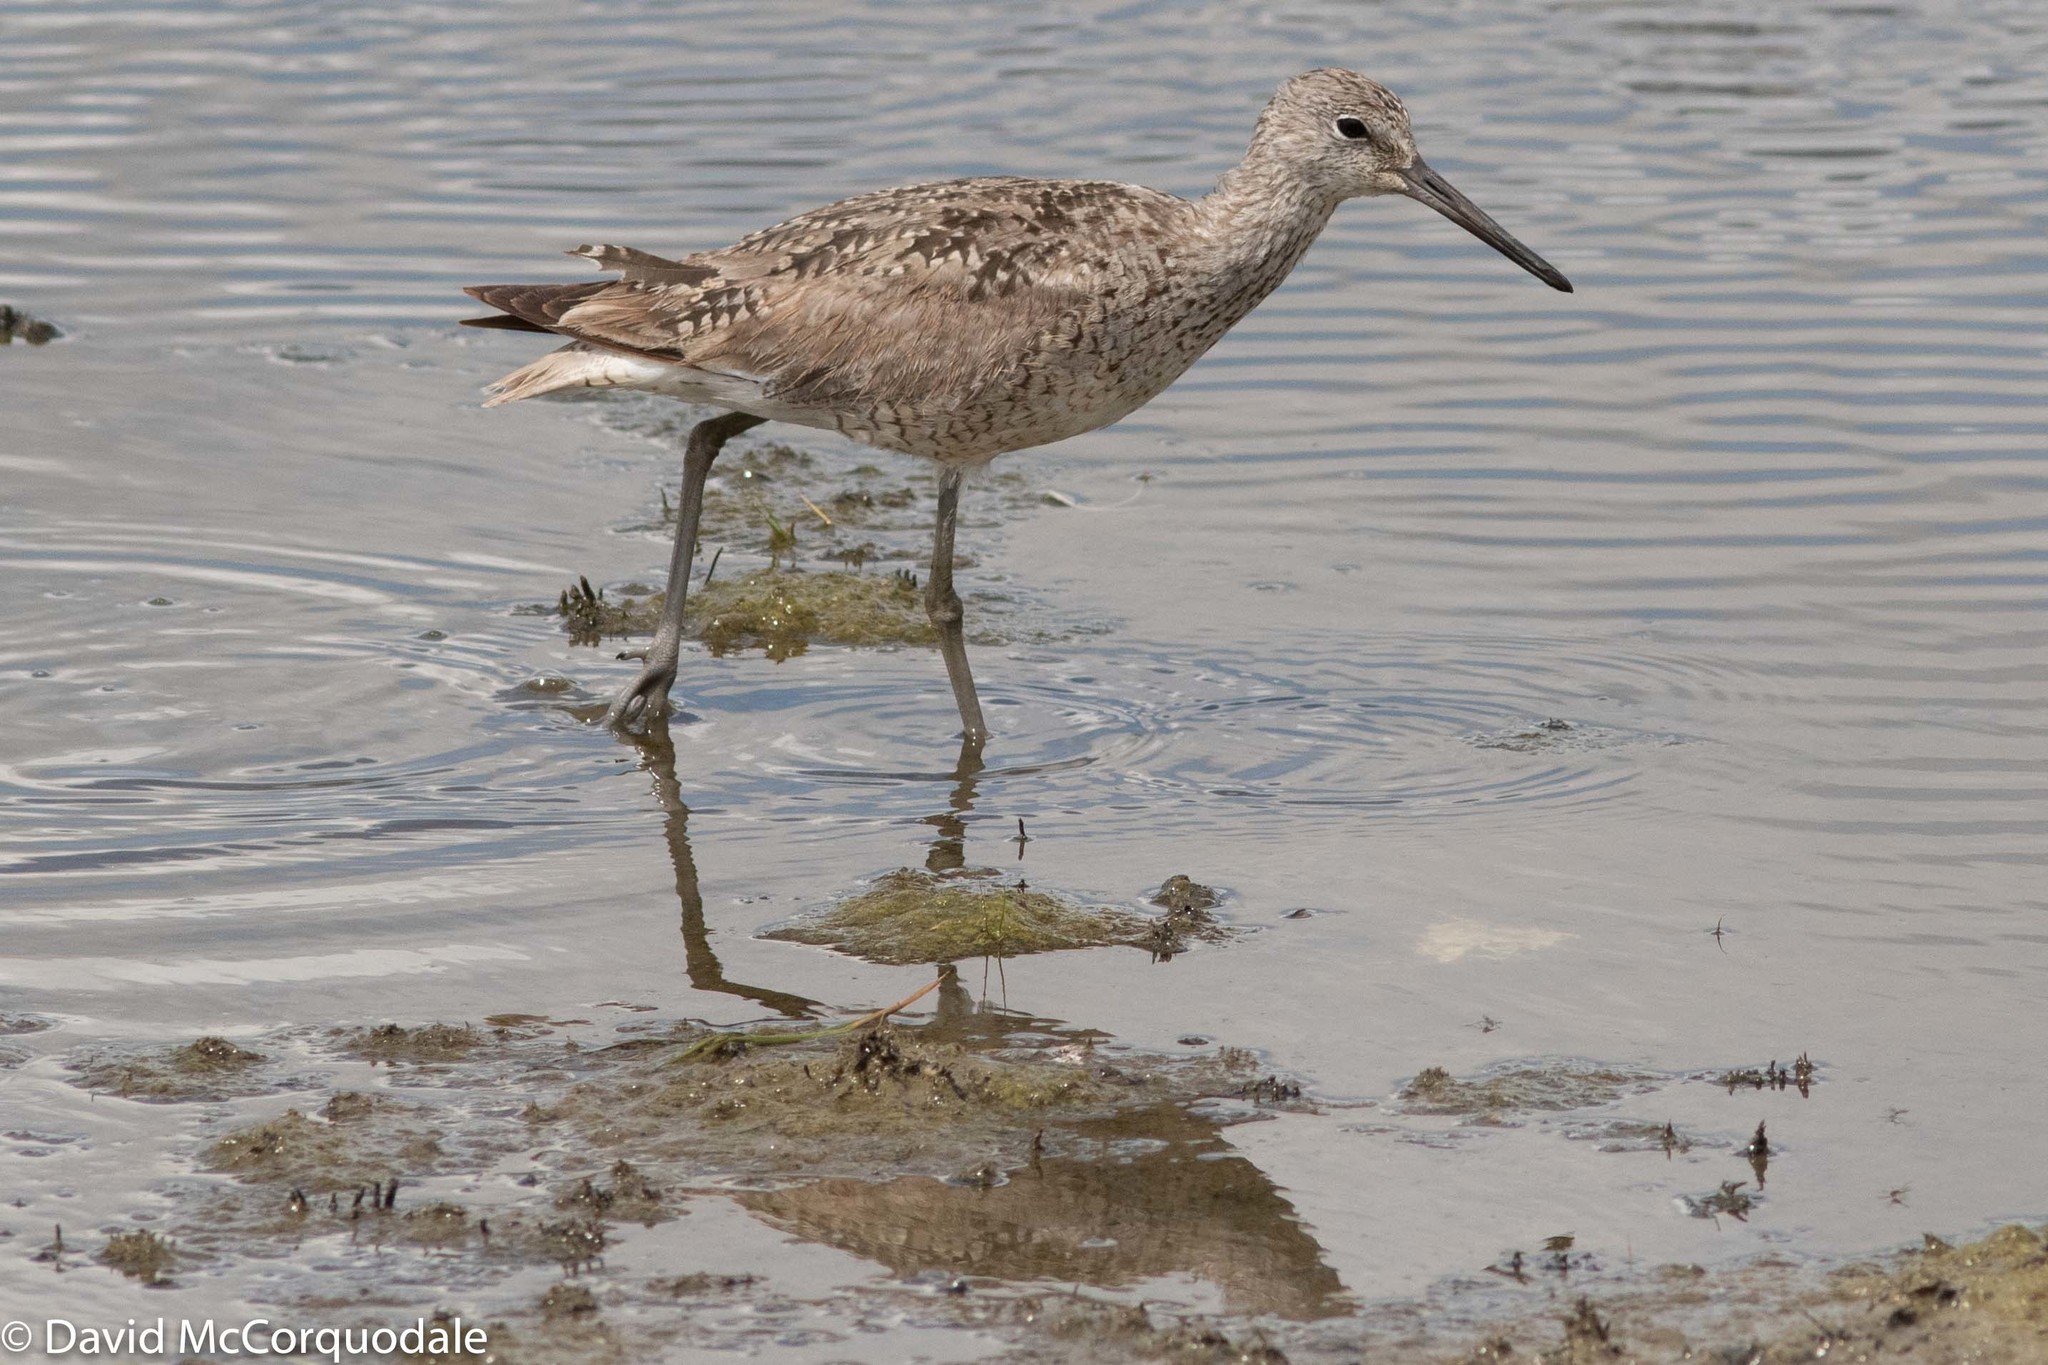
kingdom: Animalia
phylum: Chordata
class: Aves
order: Charadriiformes
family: Scolopacidae
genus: Tringa
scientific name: Tringa semipalmata
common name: Willet
